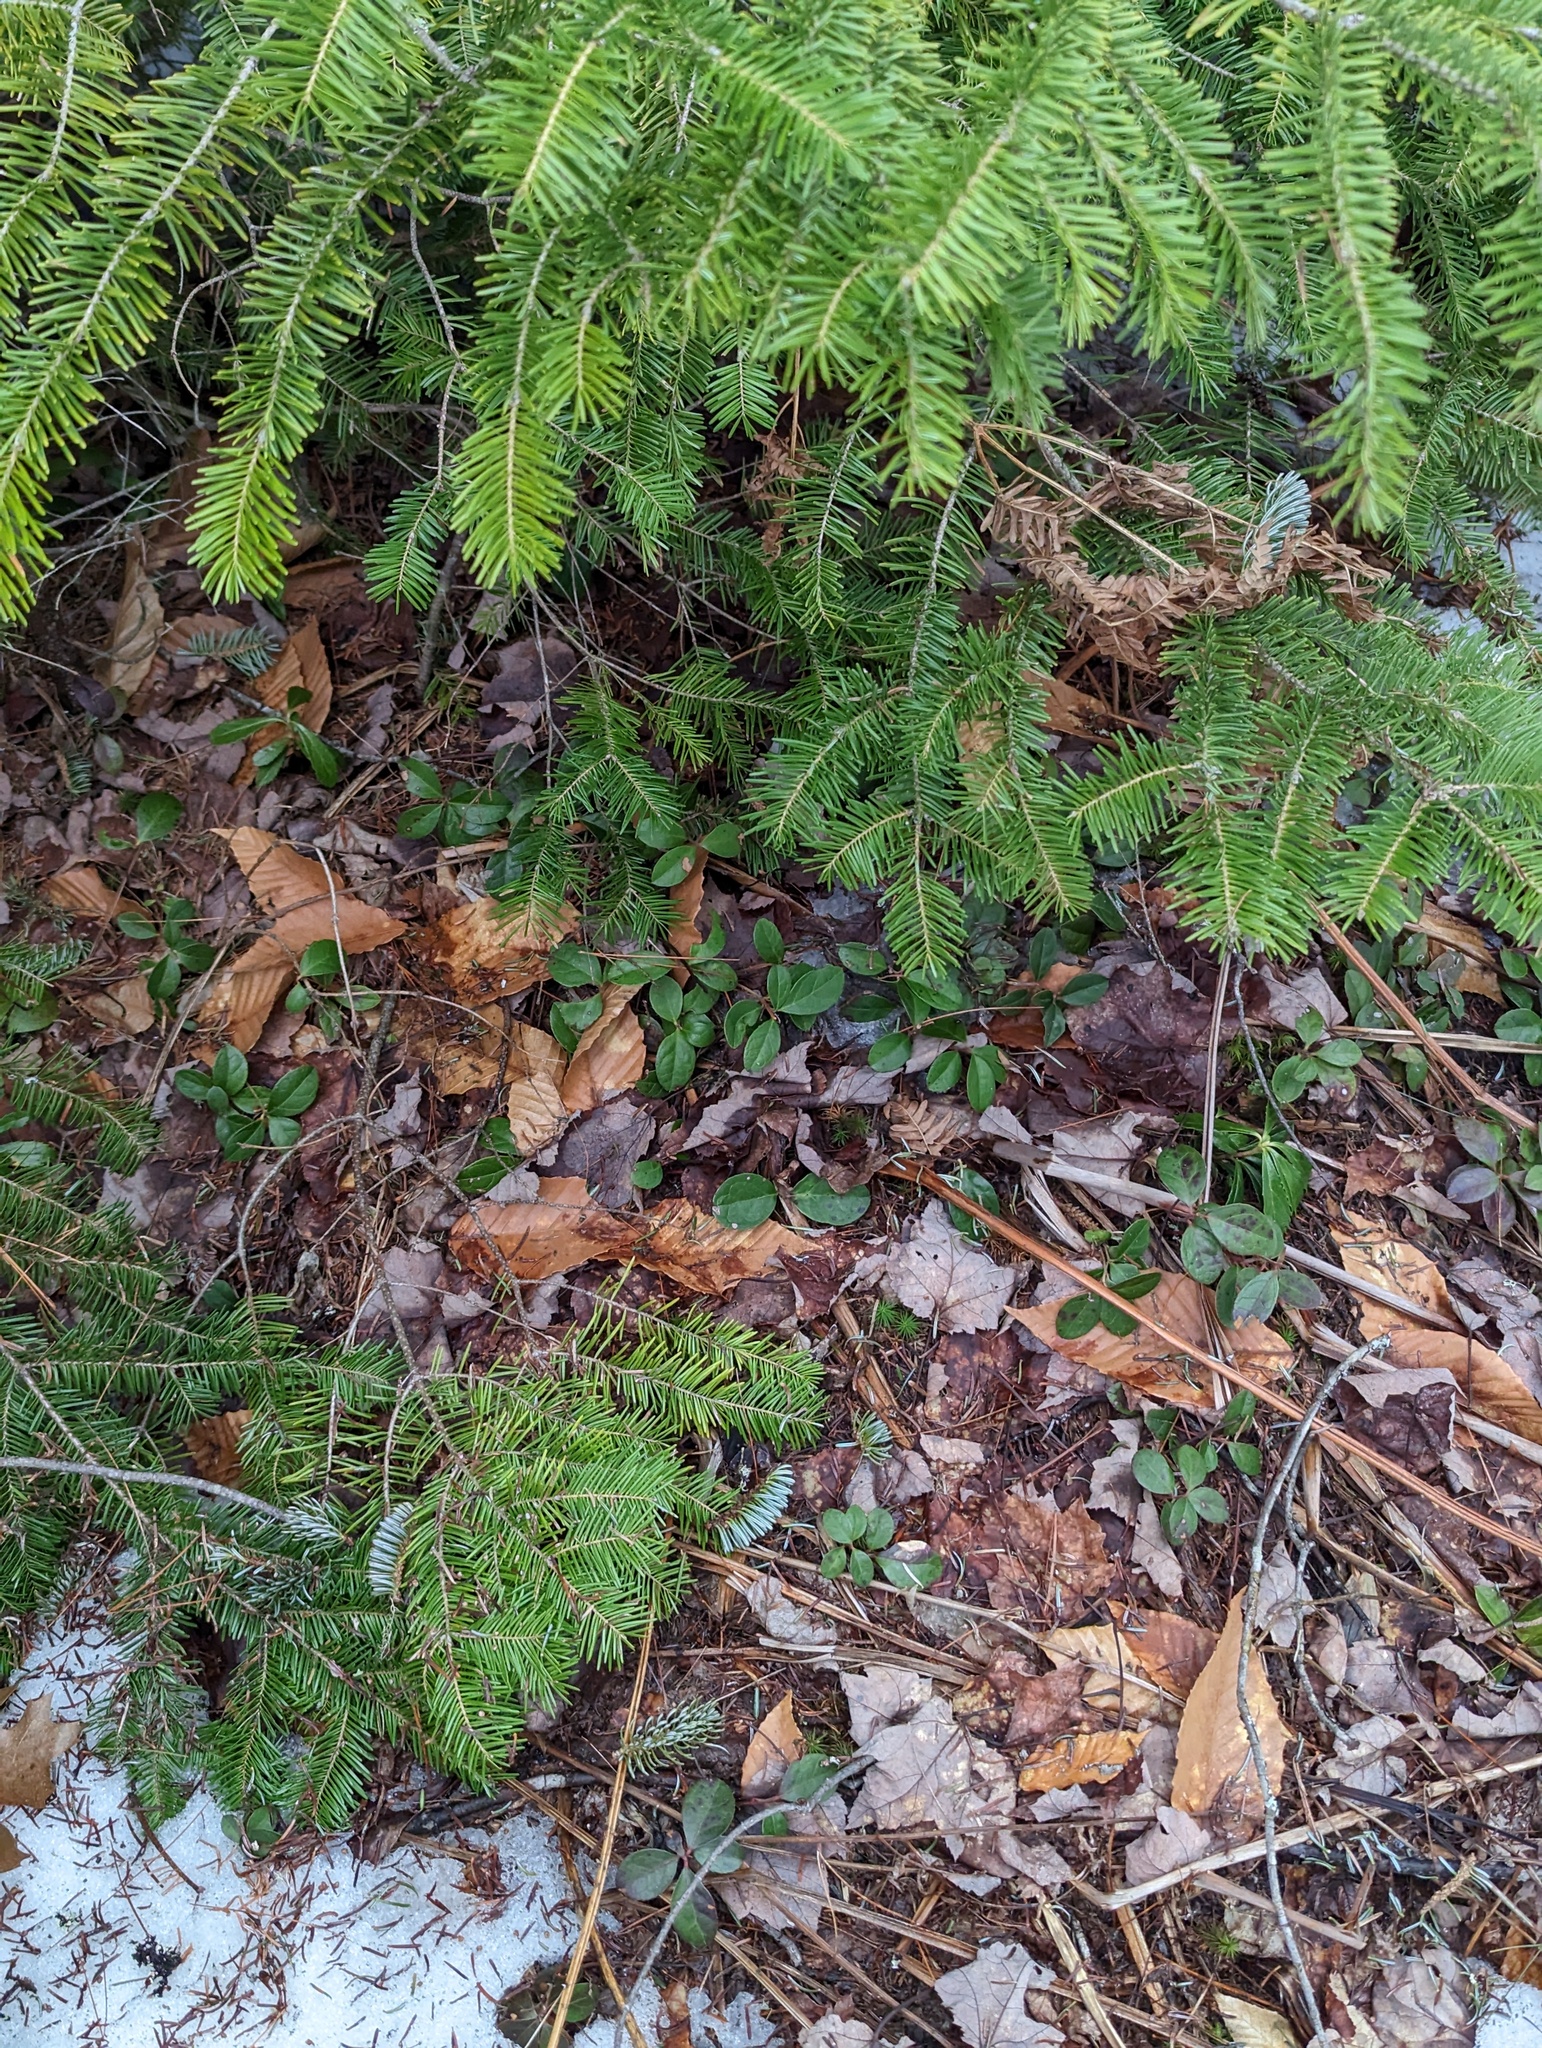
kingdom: Plantae
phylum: Tracheophyta
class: Magnoliopsida
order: Ericales
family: Ericaceae
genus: Gaultheria
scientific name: Gaultheria procumbens
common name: Checkerberry
